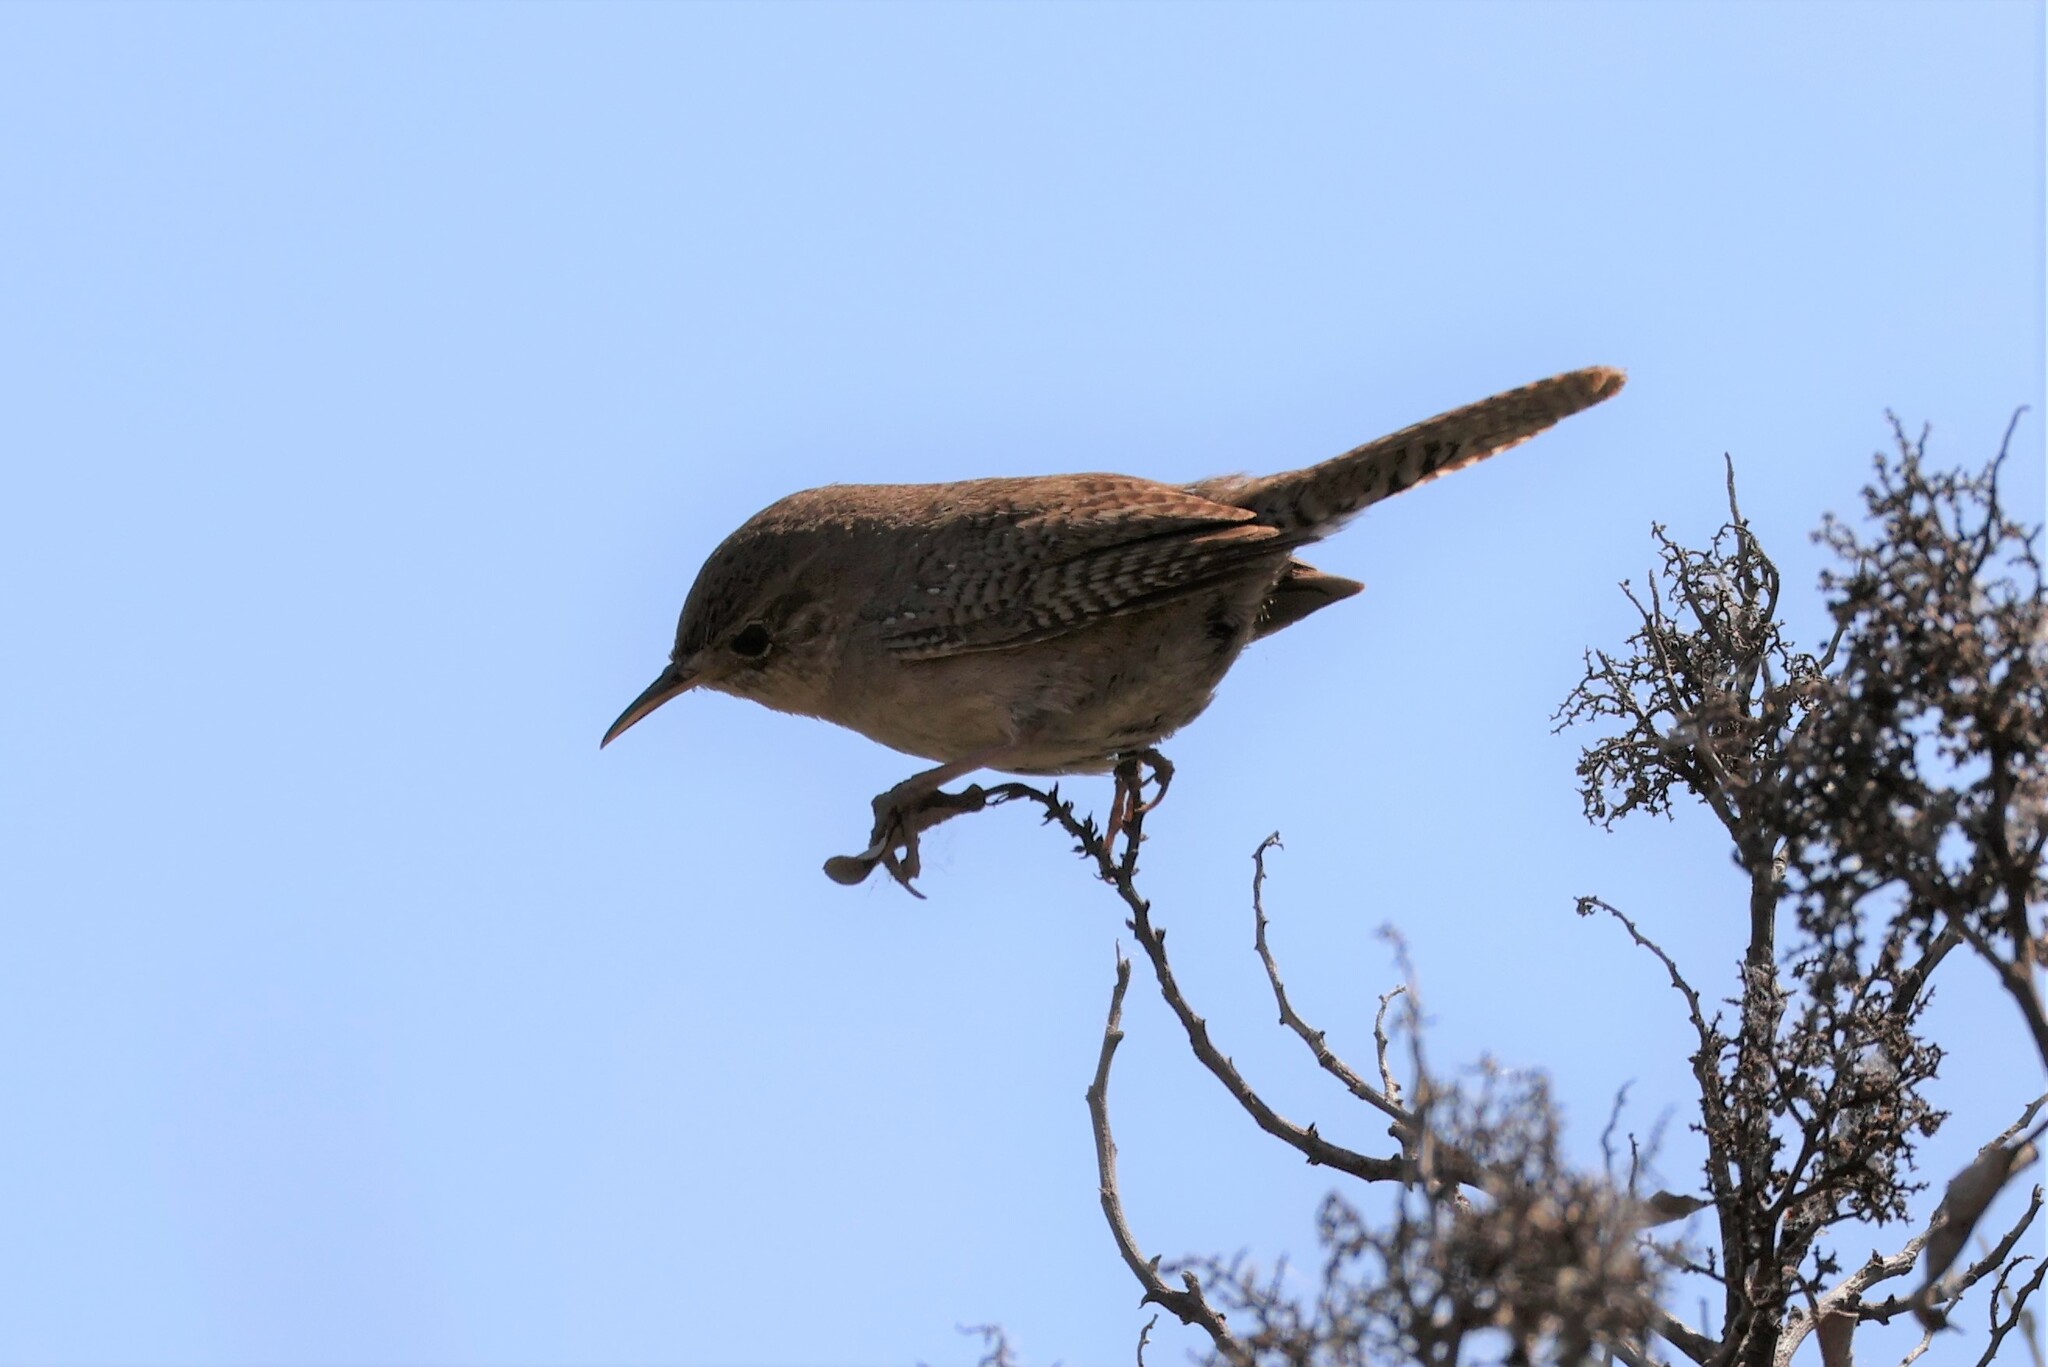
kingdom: Animalia
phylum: Chordata
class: Aves
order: Passeriformes
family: Troglodytidae
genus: Troglodytes
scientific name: Troglodytes aedon
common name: House wren
